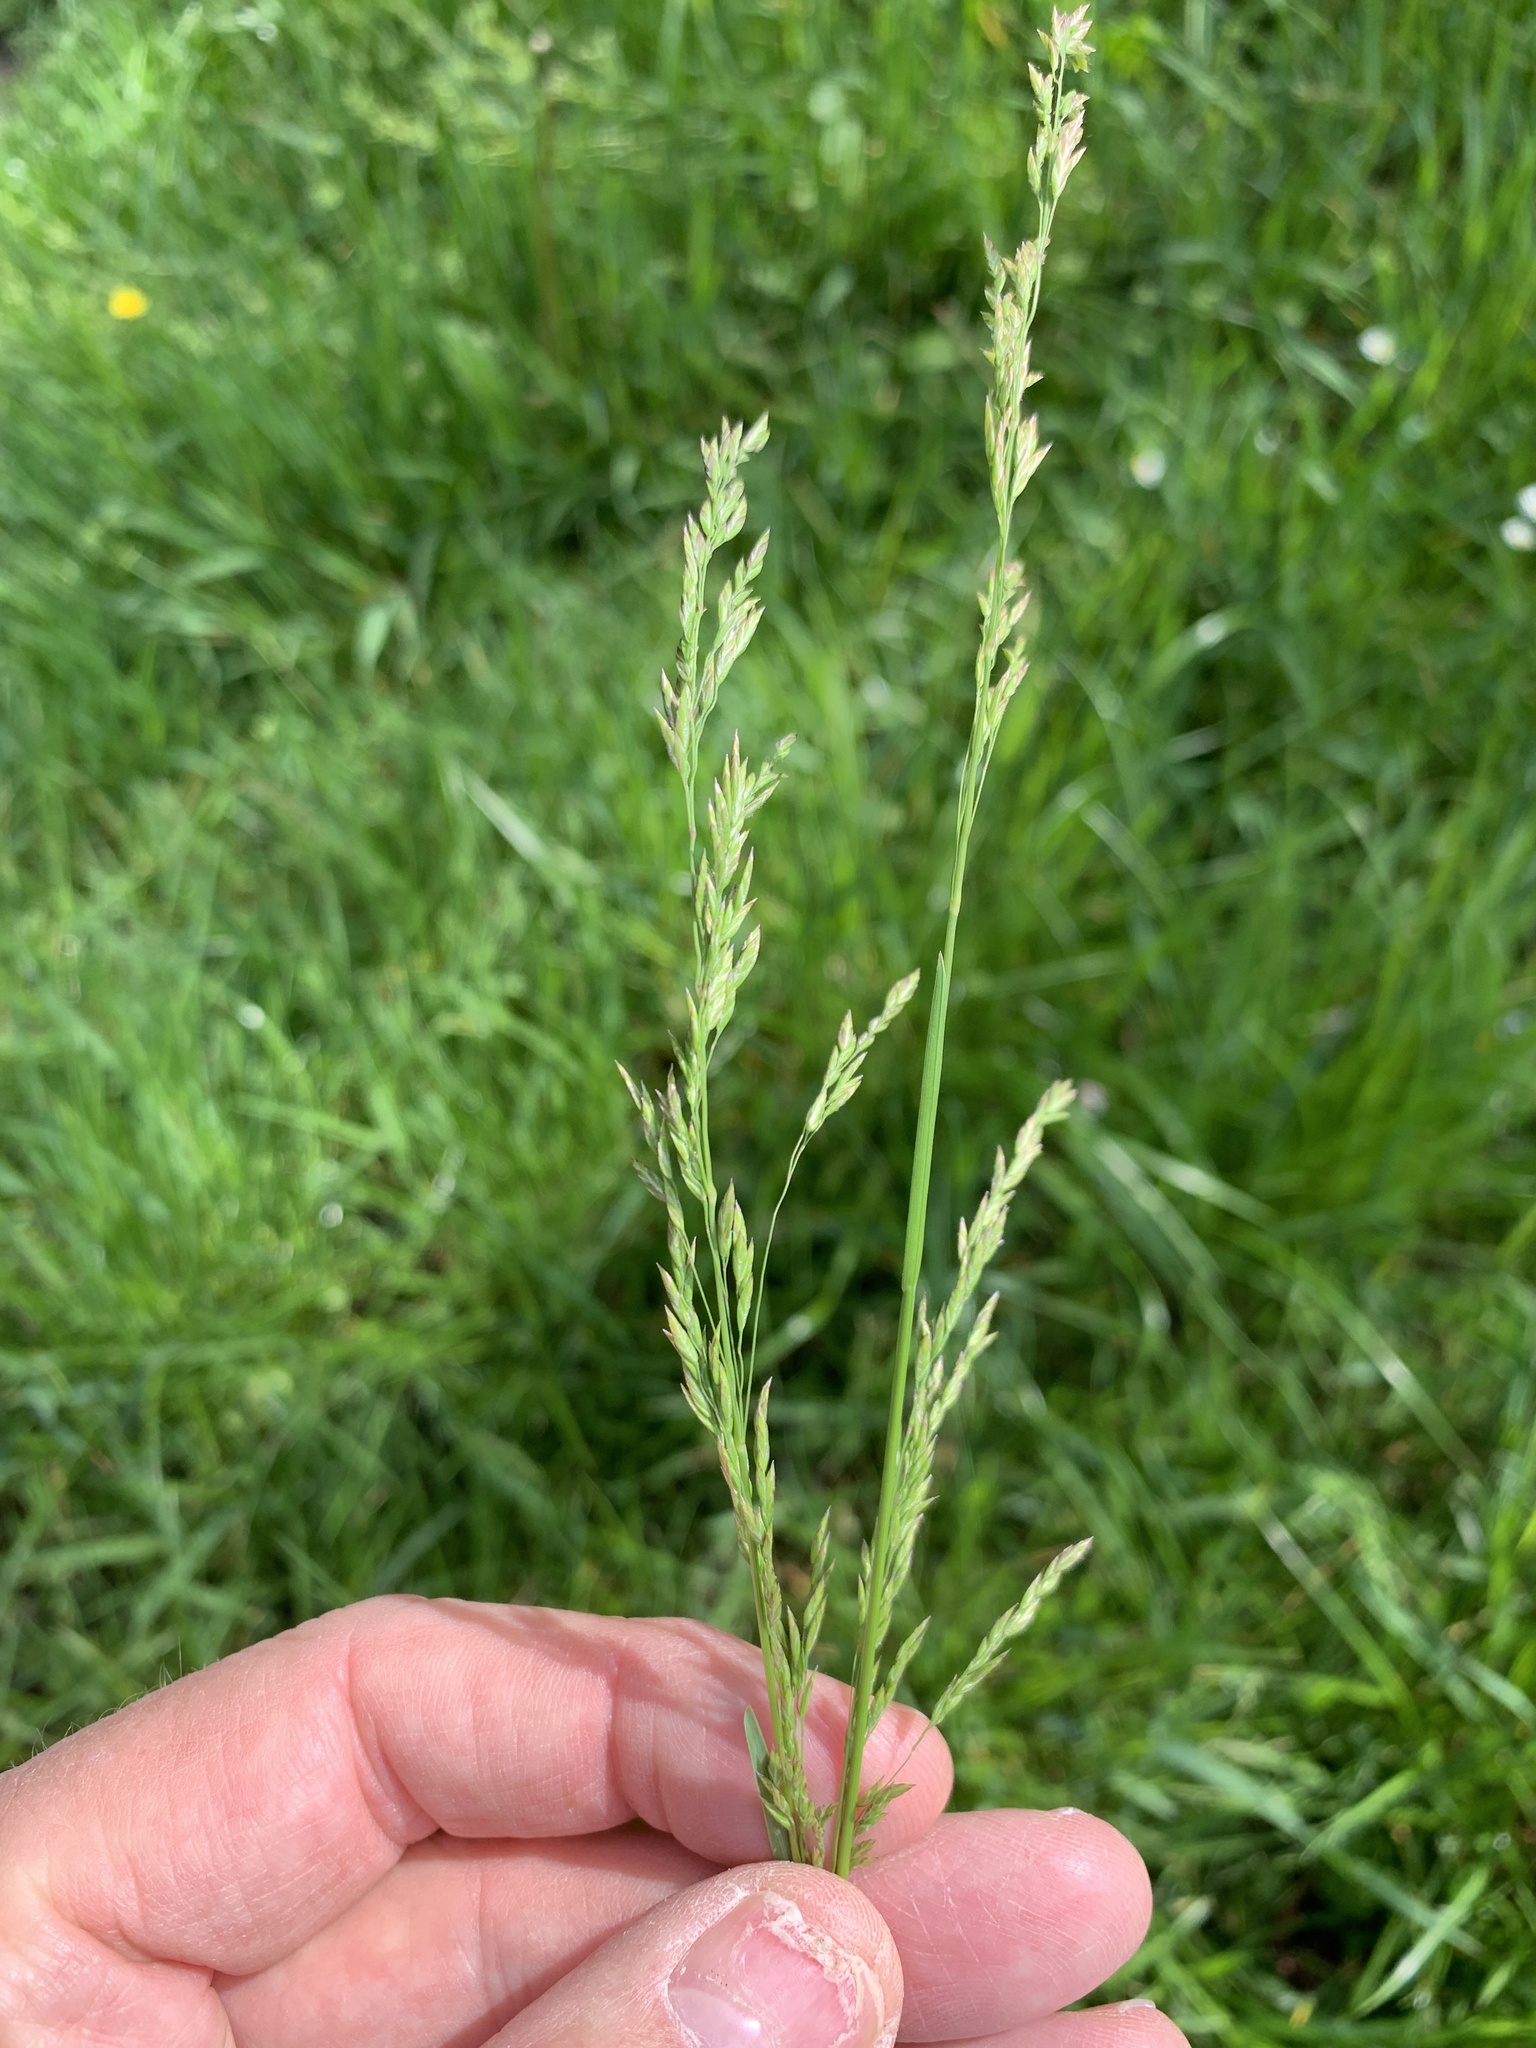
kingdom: Plantae
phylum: Tracheophyta
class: Liliopsida
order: Poales
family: Poaceae
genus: Poa
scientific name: Poa pratensis
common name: Kentucky bluegrass
